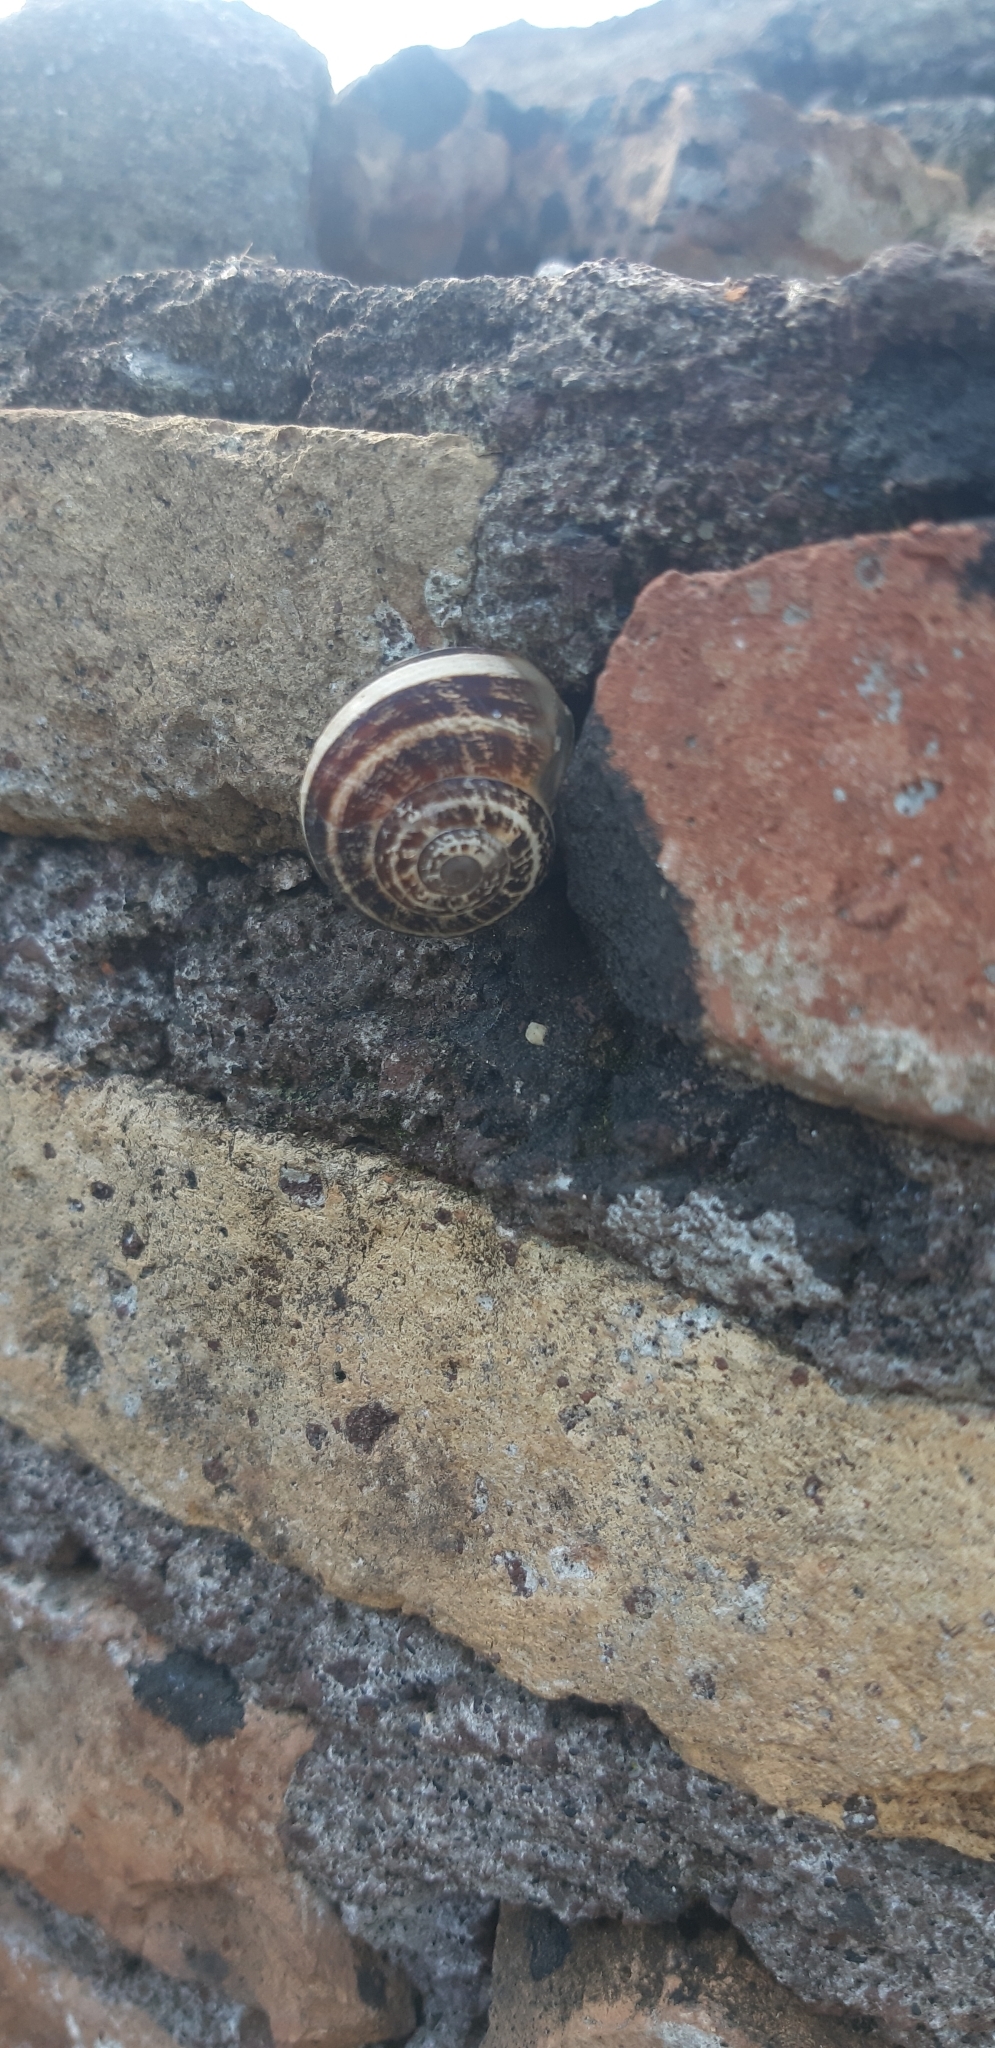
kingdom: Animalia
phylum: Mollusca
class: Gastropoda
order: Stylommatophora
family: Helicidae
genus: Eobania
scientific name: Eobania vermiculata
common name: Chocolateband snail
